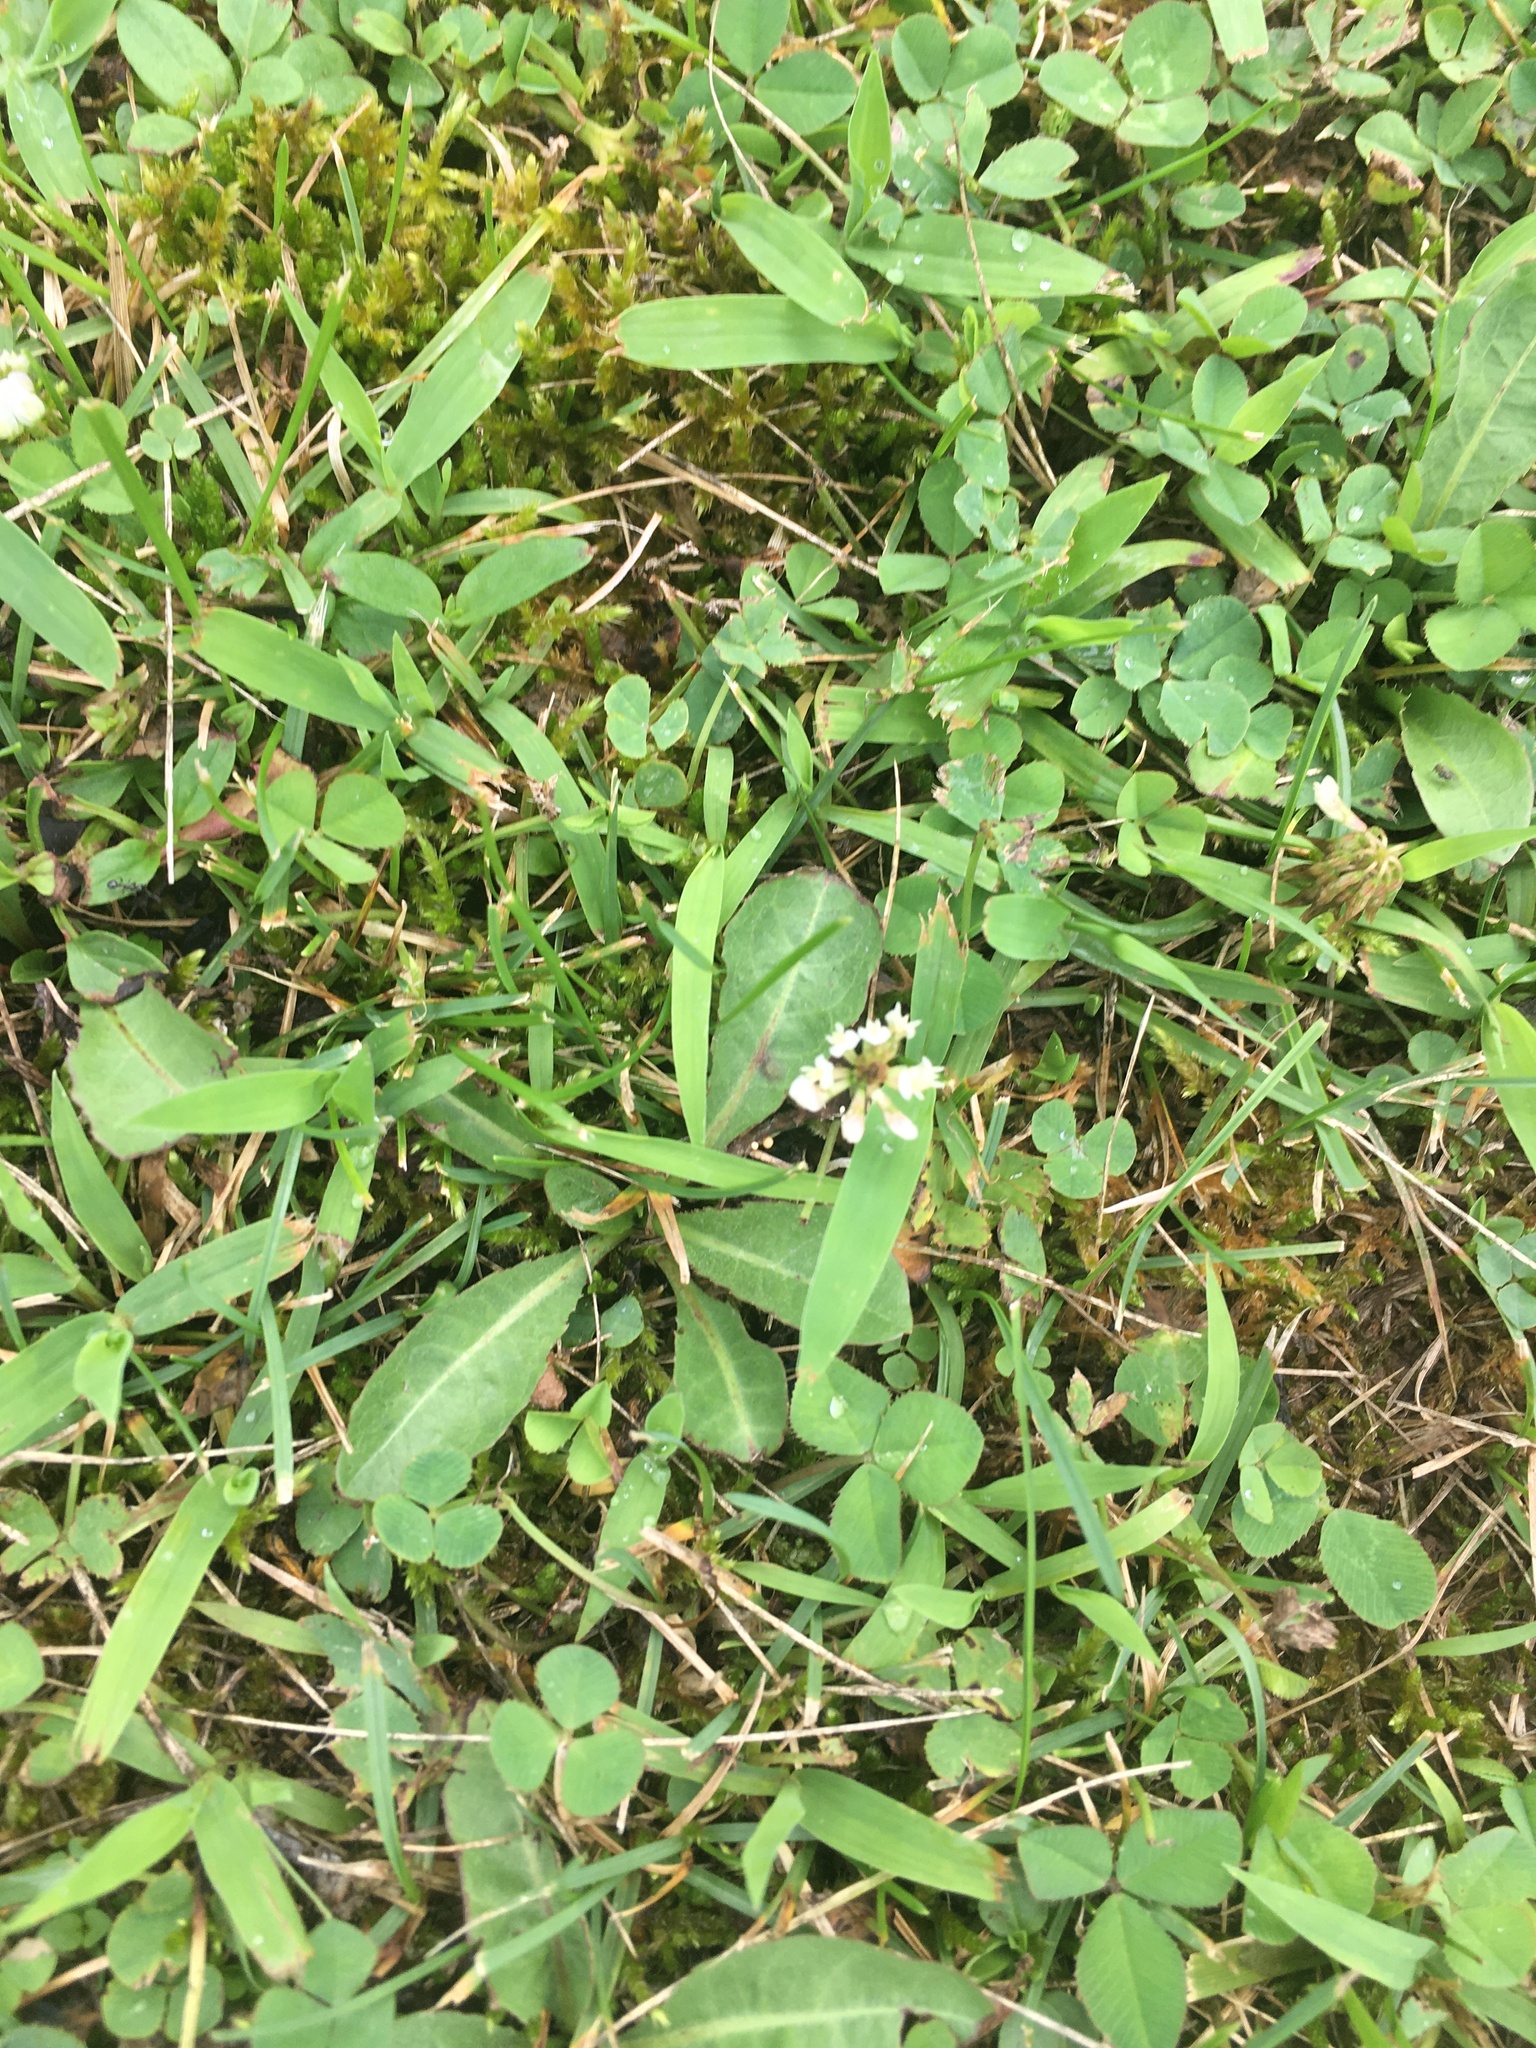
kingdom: Plantae
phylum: Tracheophyta
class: Magnoliopsida
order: Fabales
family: Fabaceae
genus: Trifolium
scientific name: Trifolium repens
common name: White clover
